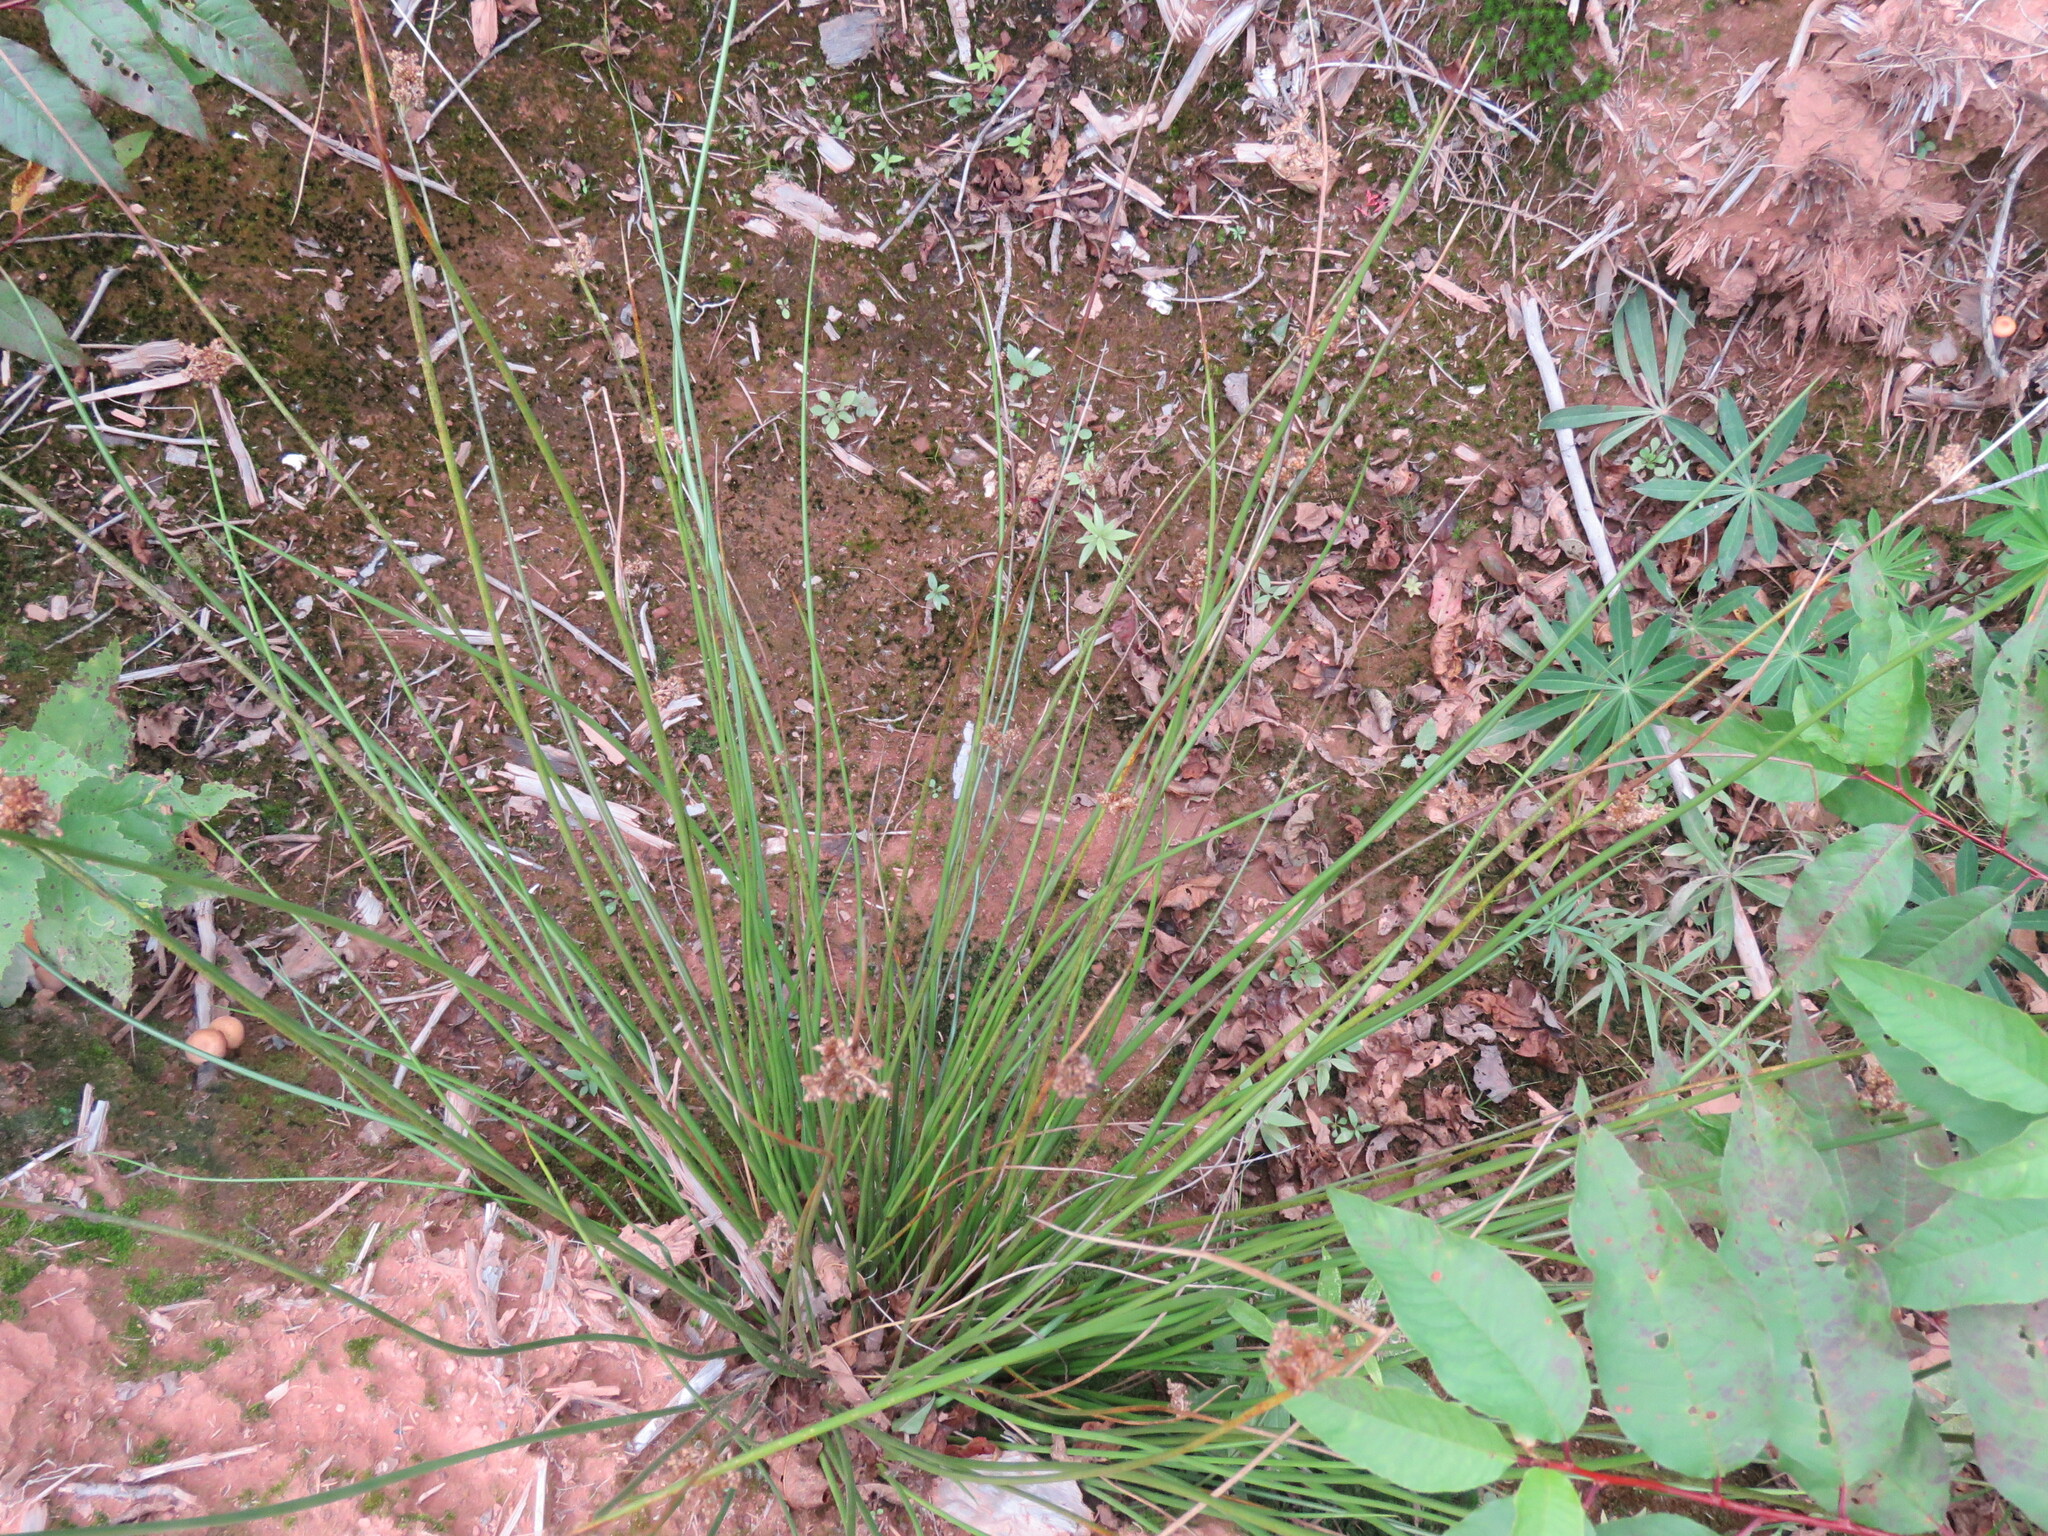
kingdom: Plantae
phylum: Tracheophyta
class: Liliopsida
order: Poales
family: Juncaceae
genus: Juncus
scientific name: Juncus effusus
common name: Soft rush
